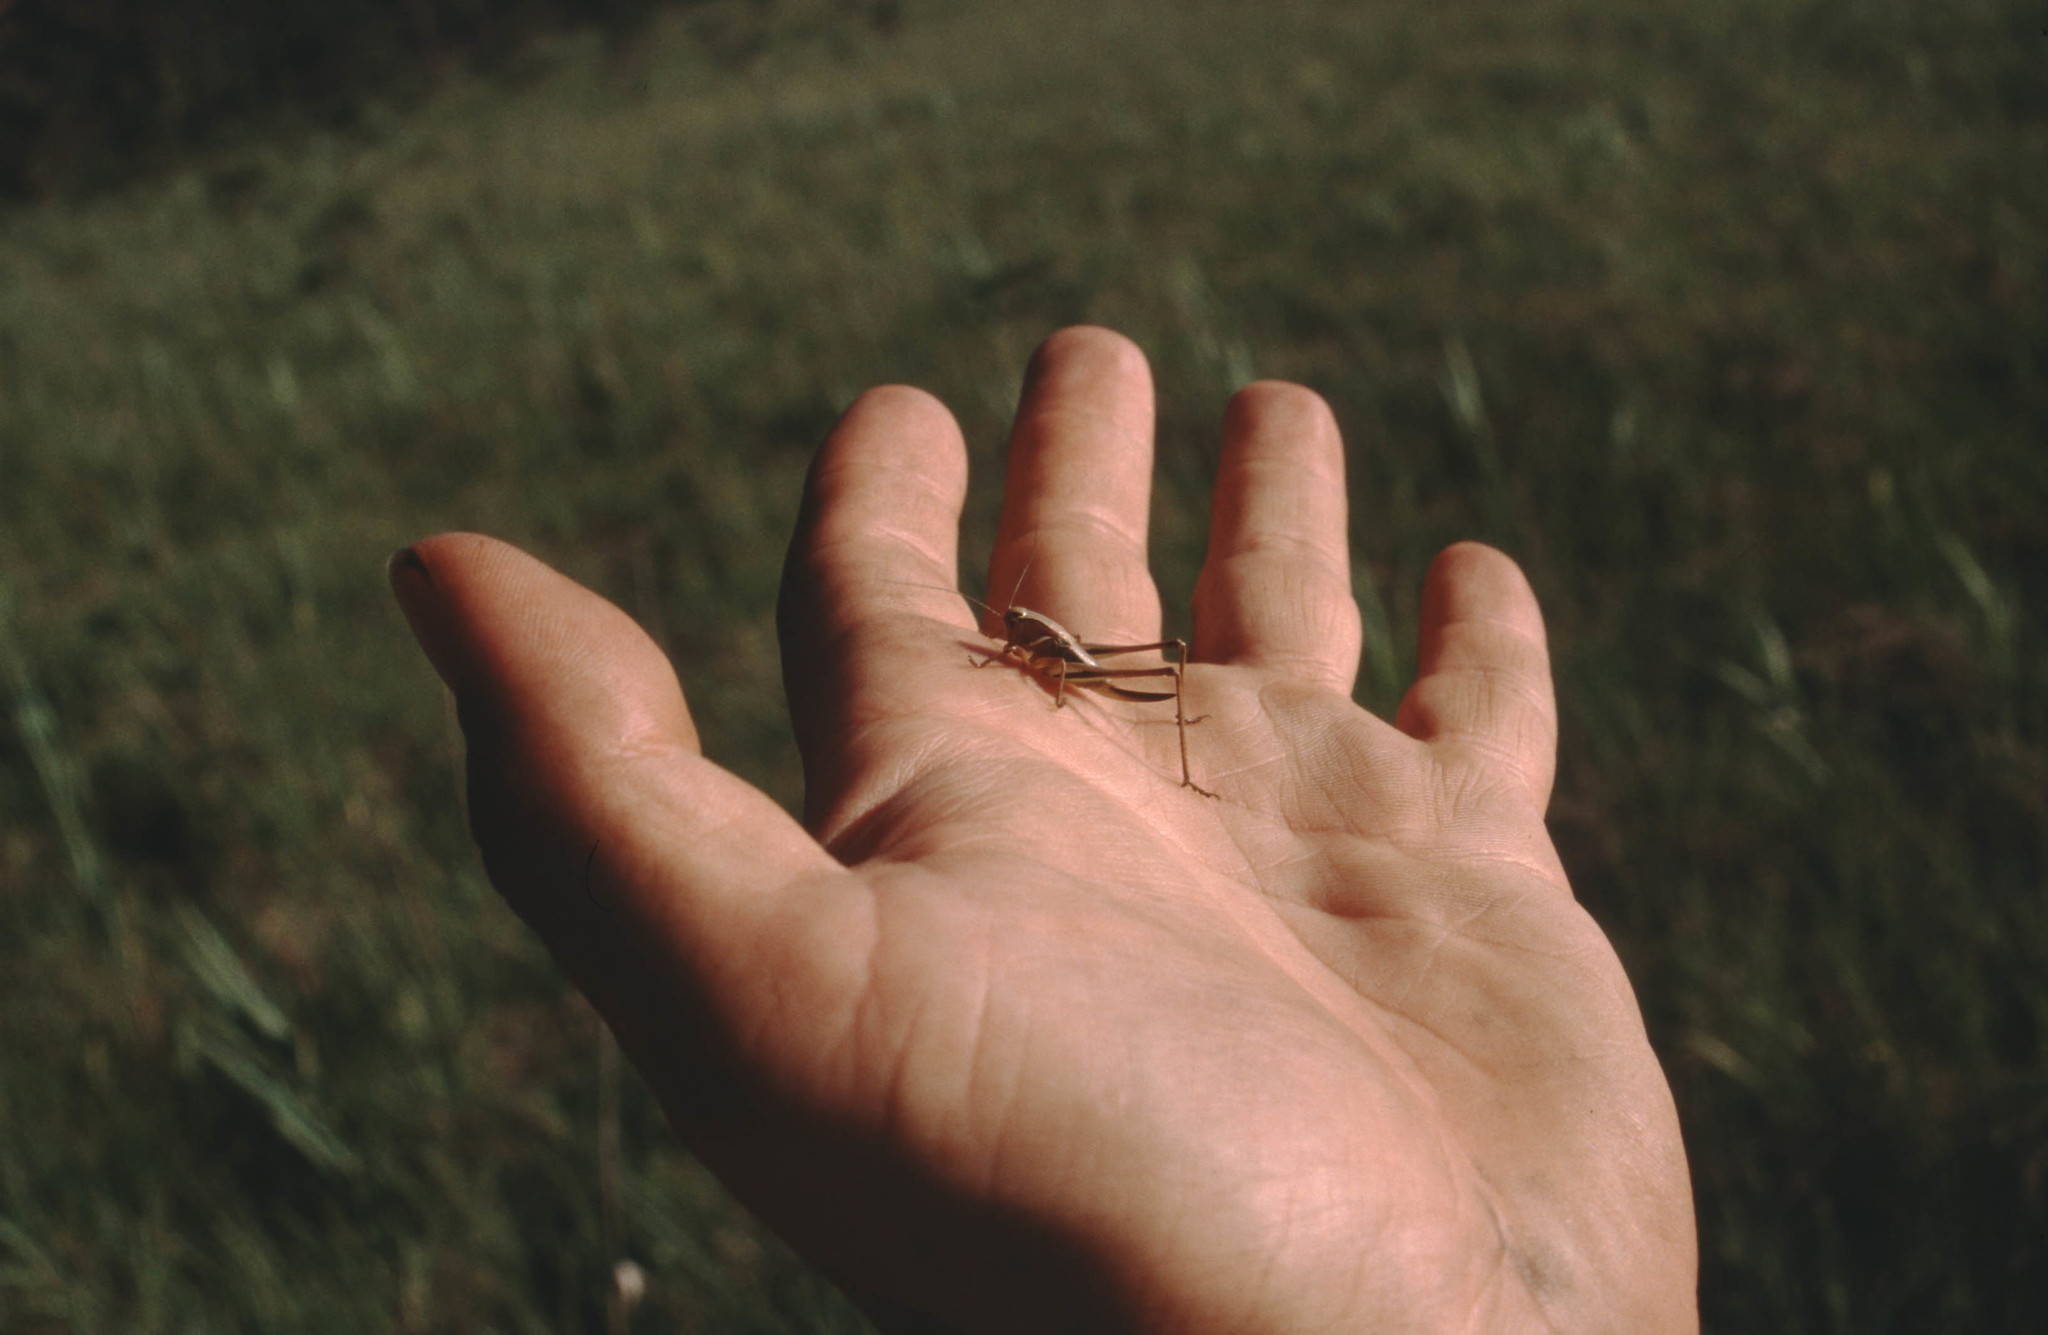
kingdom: Animalia
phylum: Arthropoda
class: Insecta
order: Orthoptera
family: Tettigoniidae
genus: Metrioptera
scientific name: Metrioptera brachyptera
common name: Bog bush-cricket
